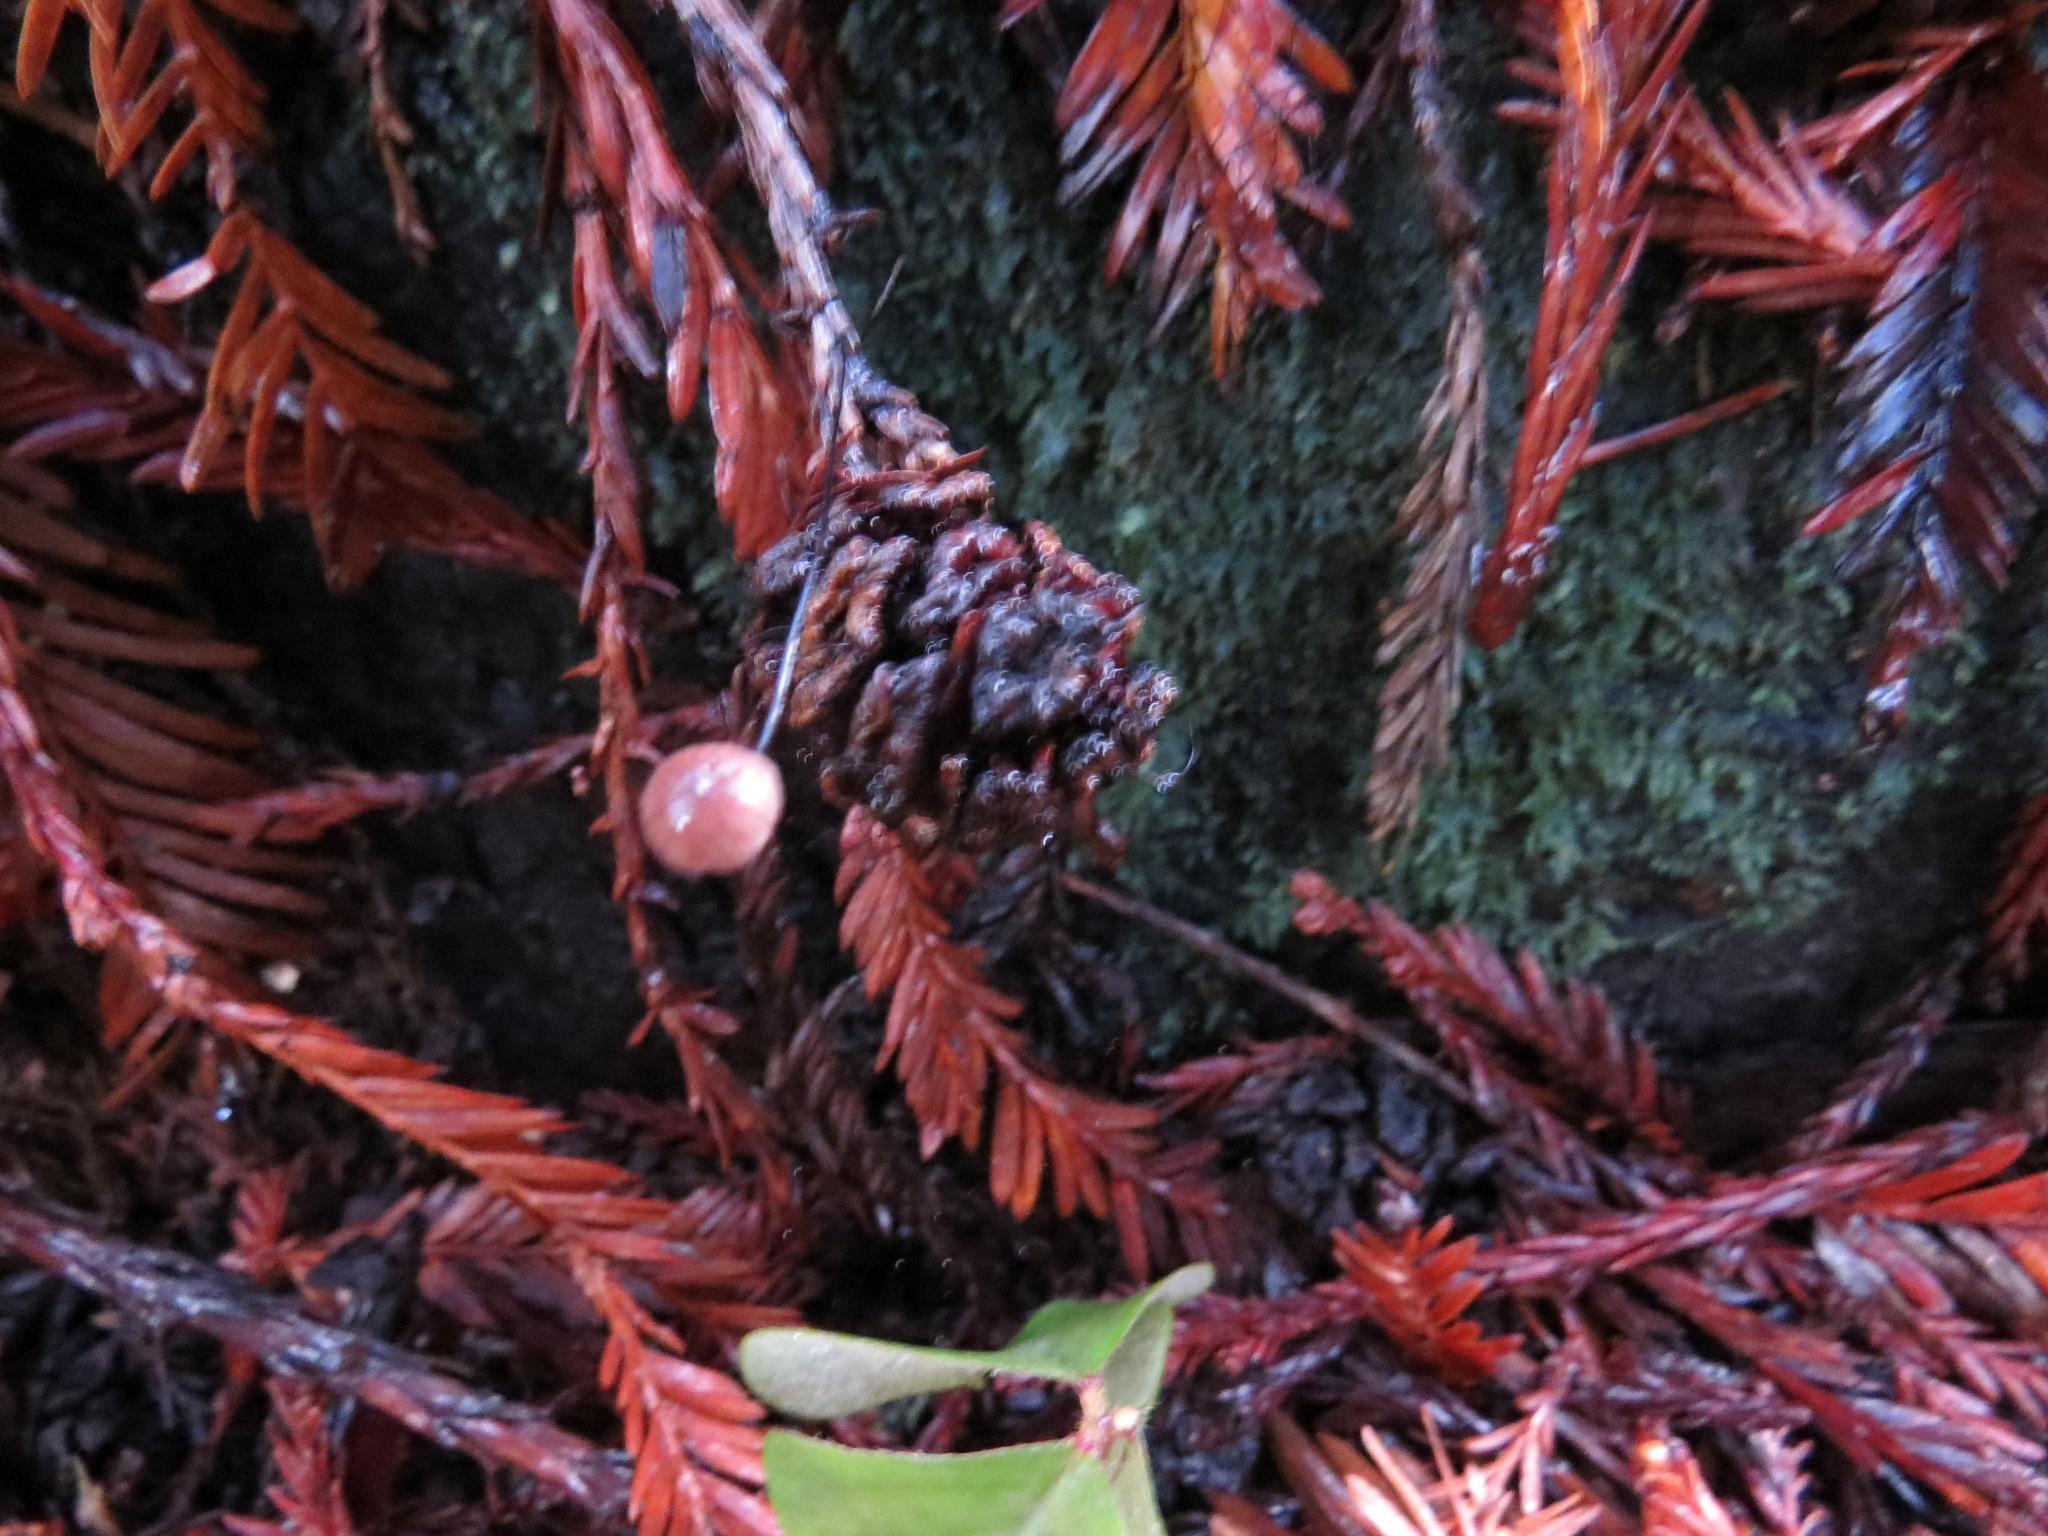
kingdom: Fungi
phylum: Basidiomycota
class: Agaricomycetes
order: Agaricales
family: Omphalotaceae
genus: Gymnopus
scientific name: Gymnopus androsaceus
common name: Horse-hair fungus
